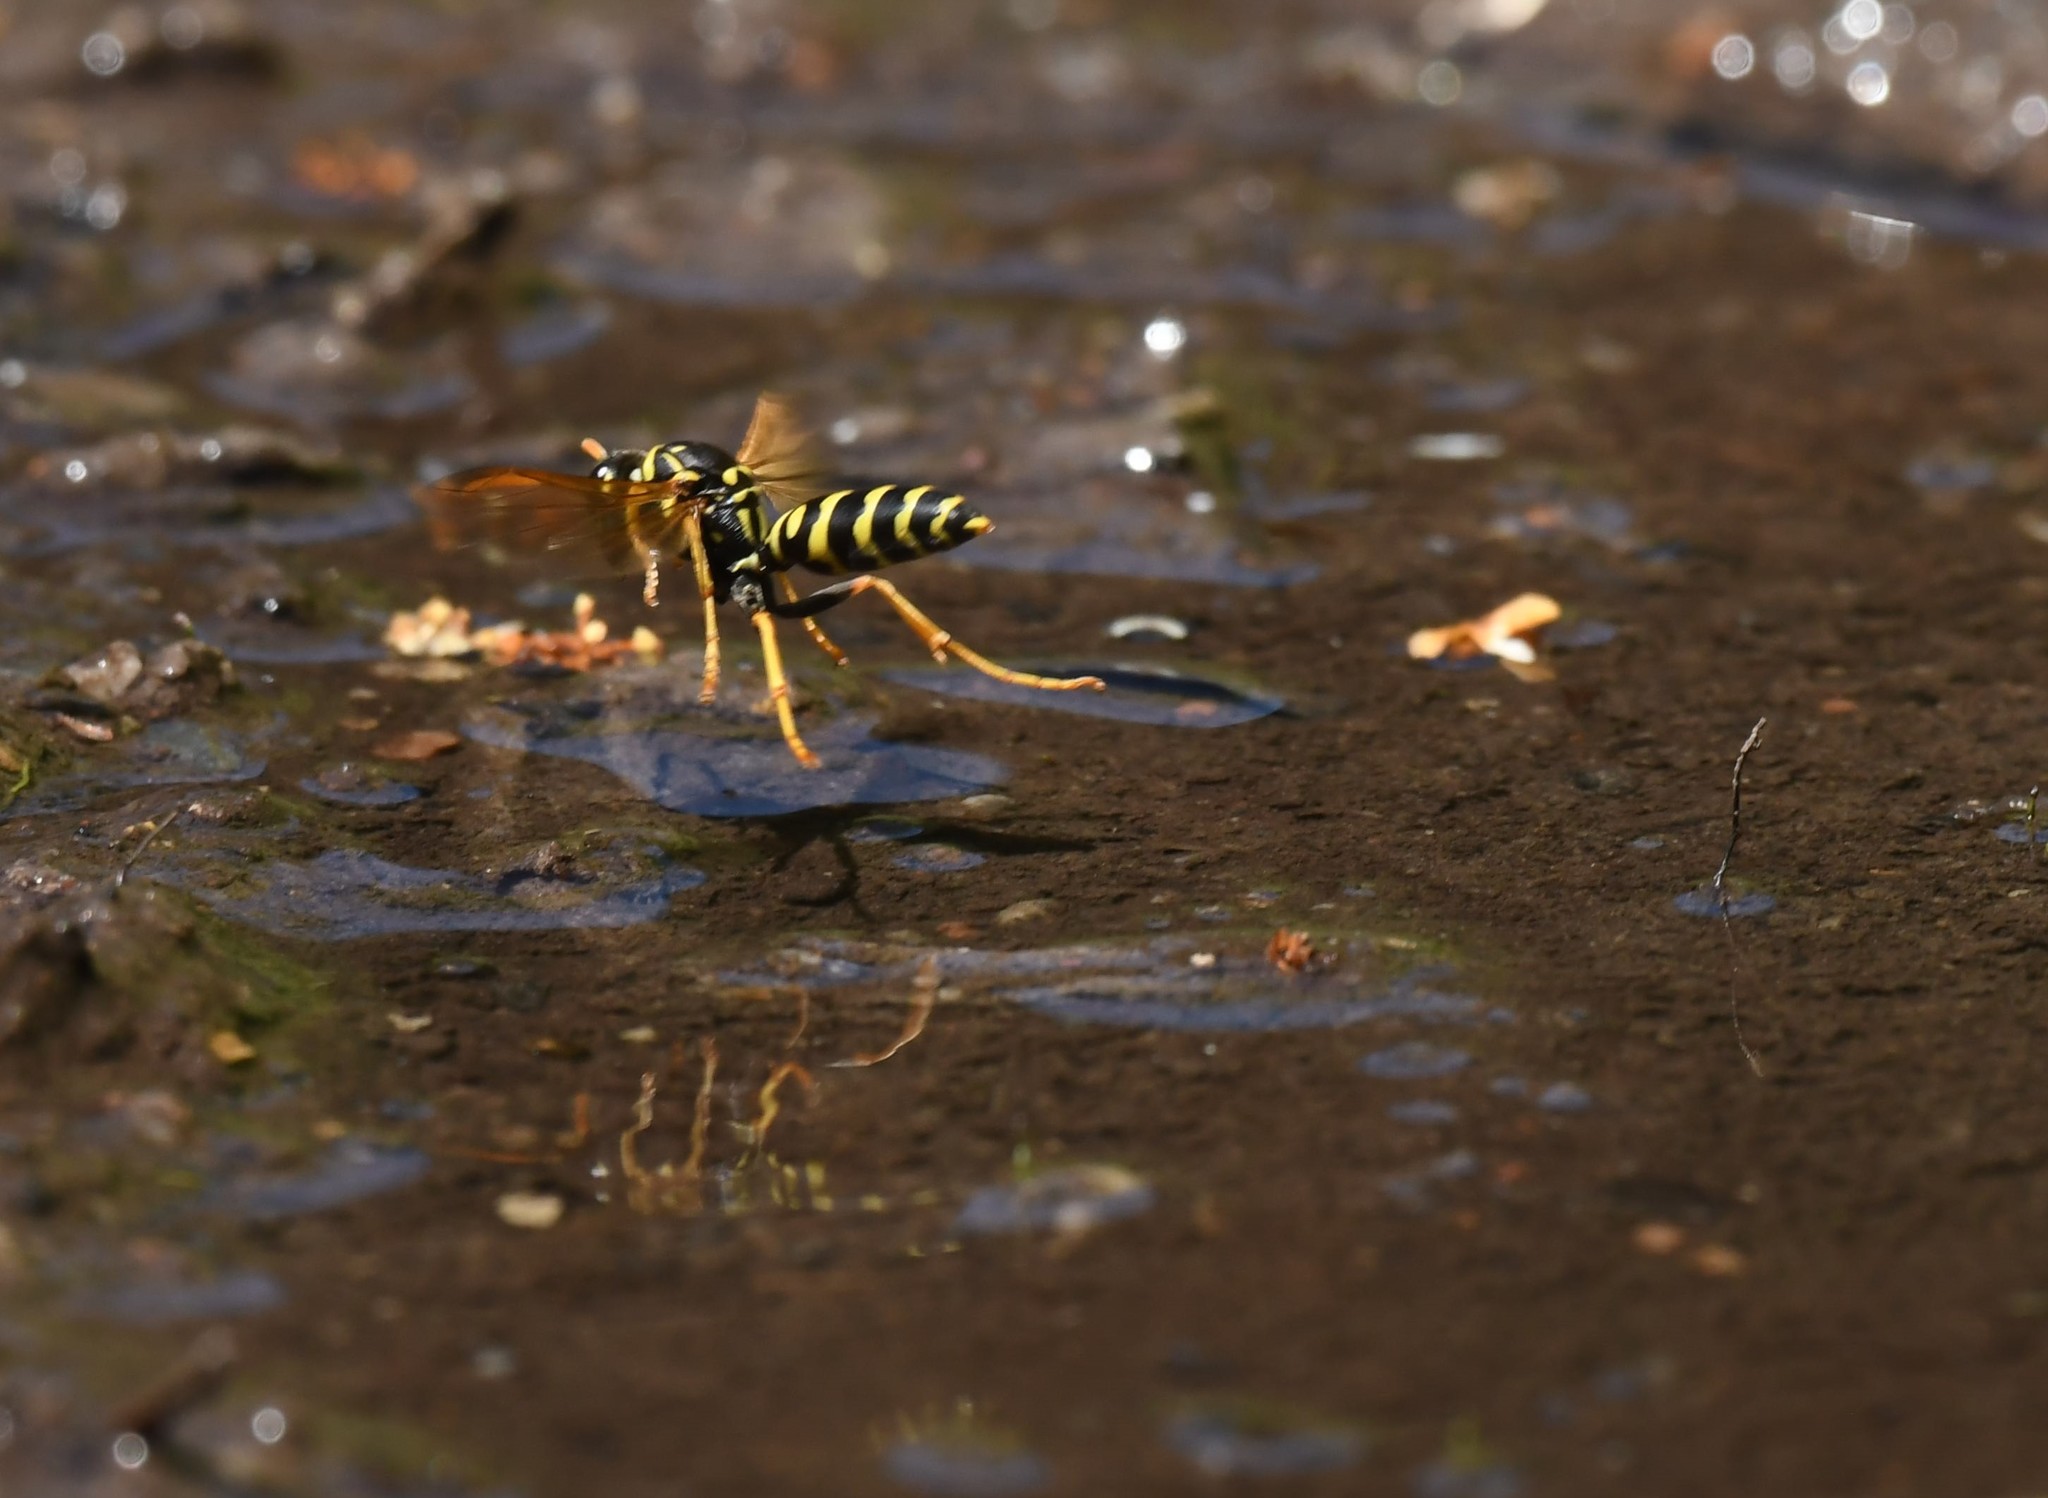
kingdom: Animalia
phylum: Arthropoda
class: Insecta
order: Hymenoptera
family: Eumenidae
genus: Polistes
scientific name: Polistes dominula
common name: Paper wasp
